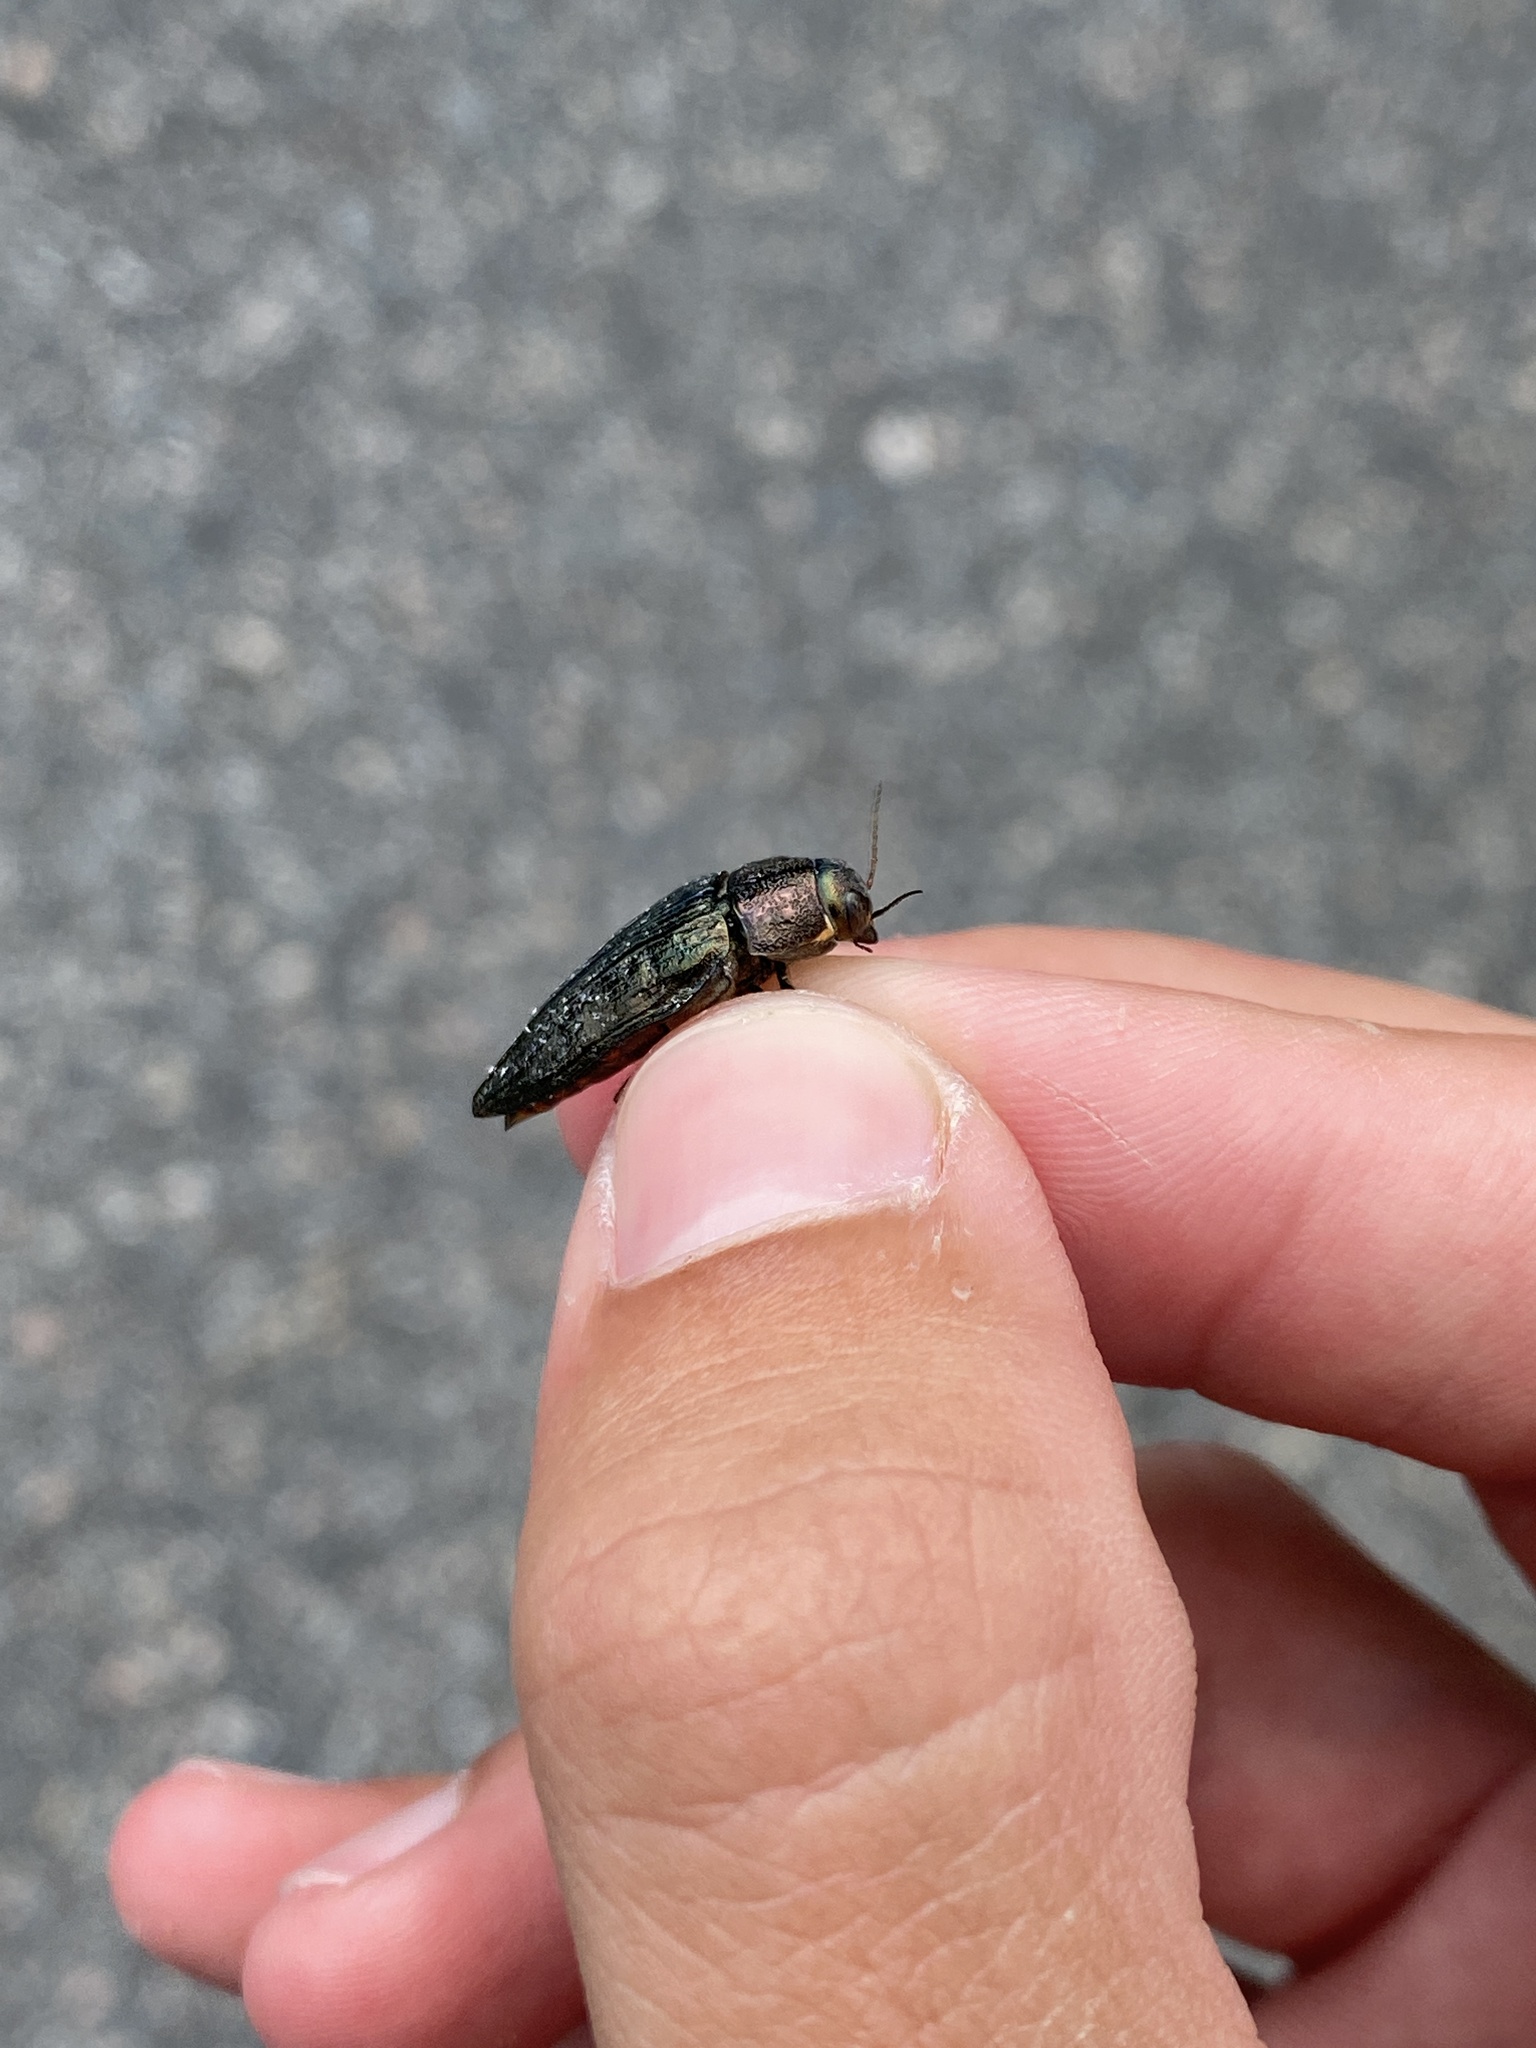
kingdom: Animalia
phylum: Arthropoda
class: Insecta
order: Coleoptera
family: Buprestidae
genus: Buprestis
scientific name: Buprestis maculativentris
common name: Spotted-belly buprestid beetle
